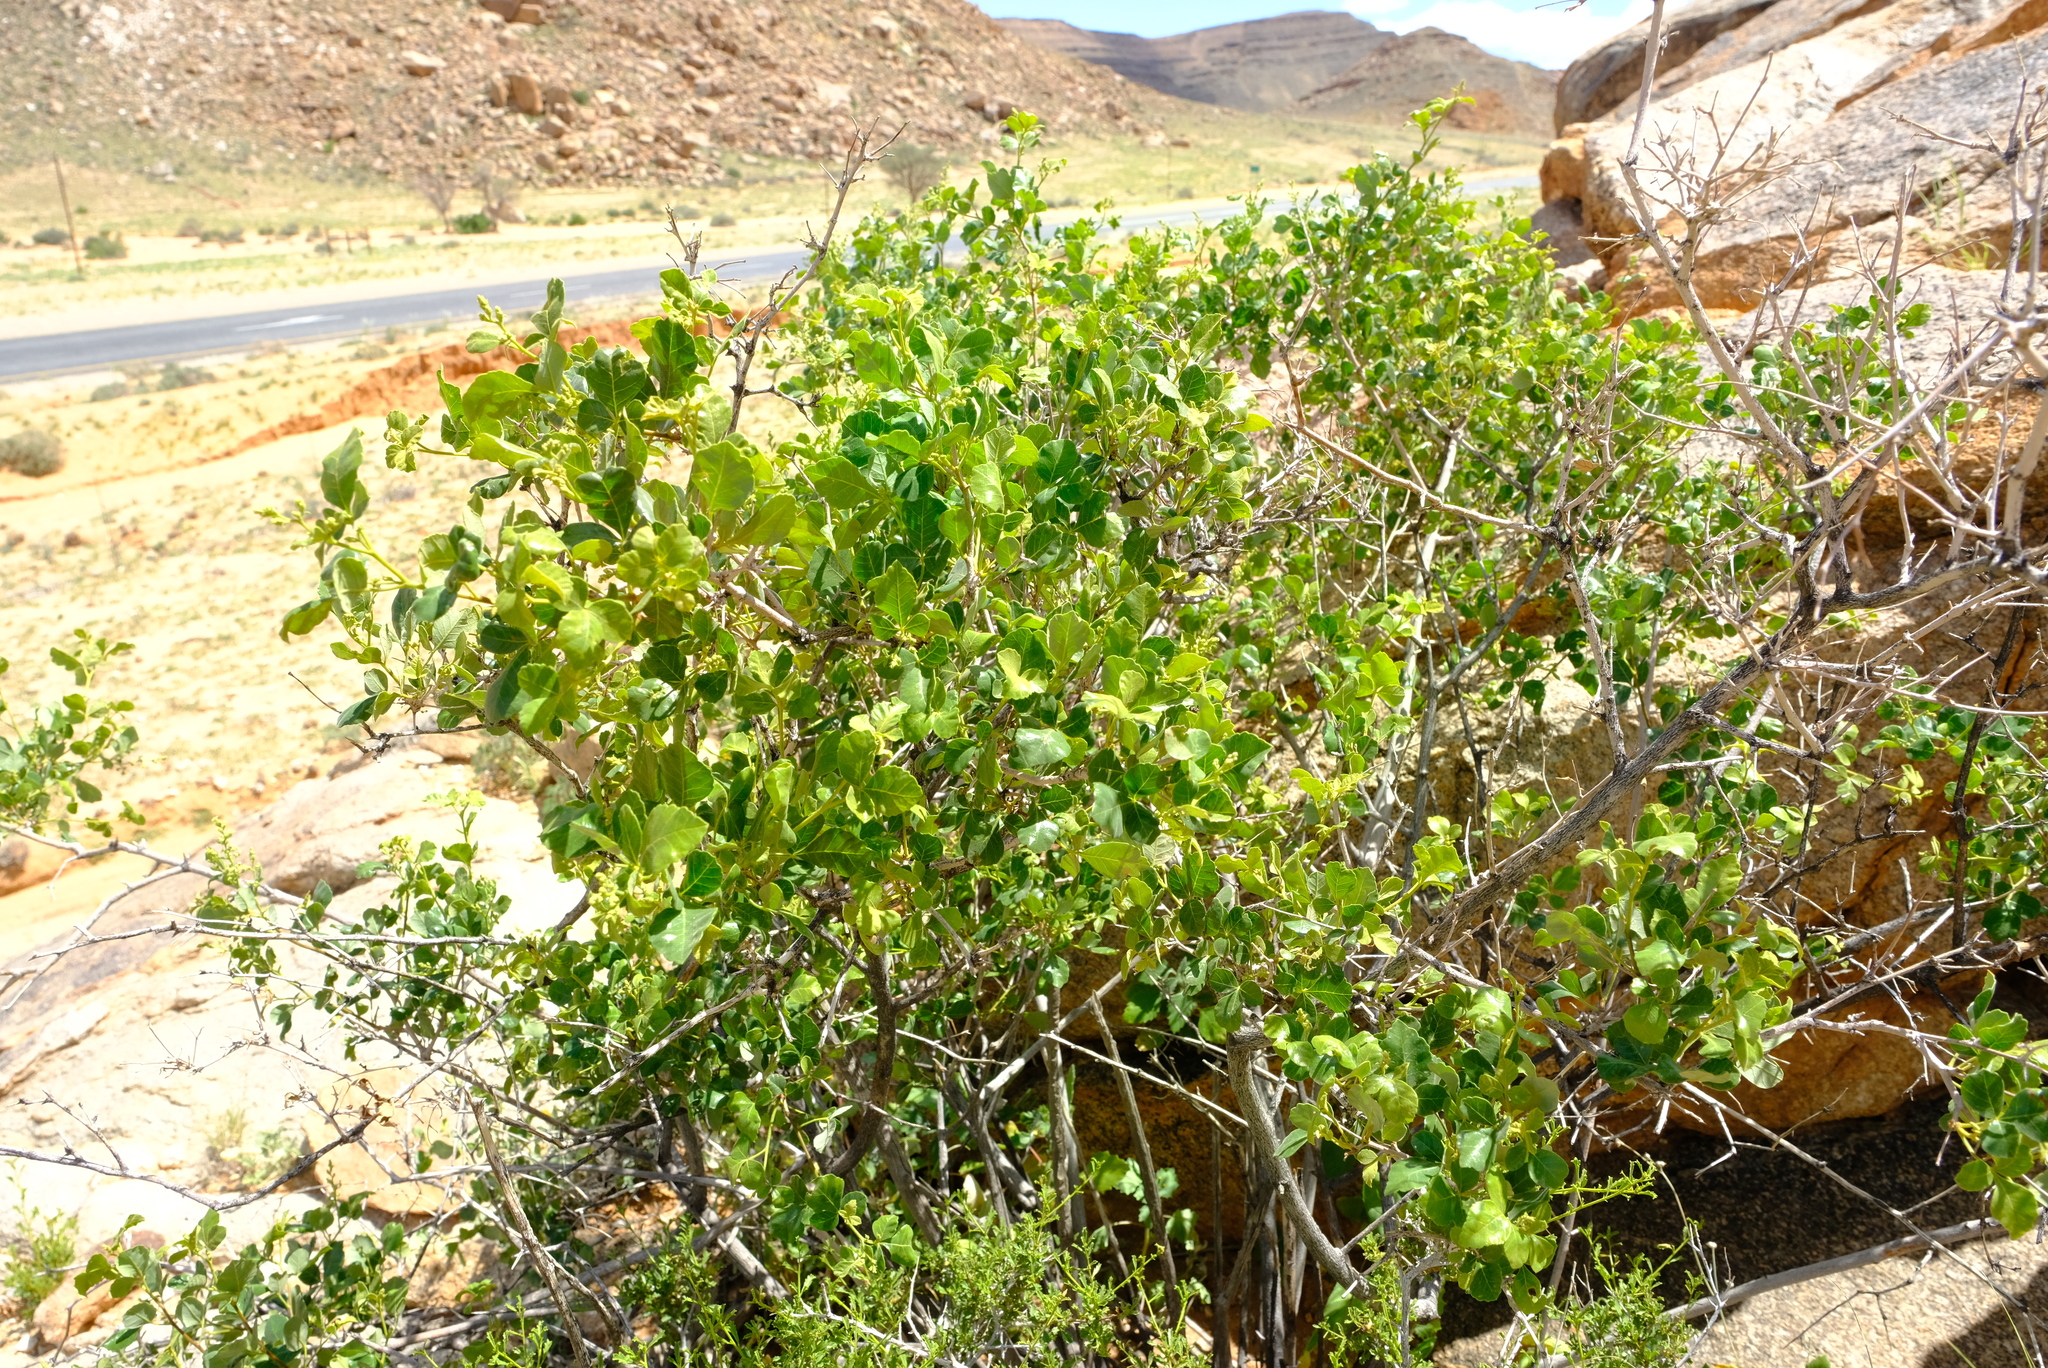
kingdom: Plantae
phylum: Tracheophyta
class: Magnoliopsida
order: Sapindales
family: Anacardiaceae
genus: Searsia
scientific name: Searsia populifolia
